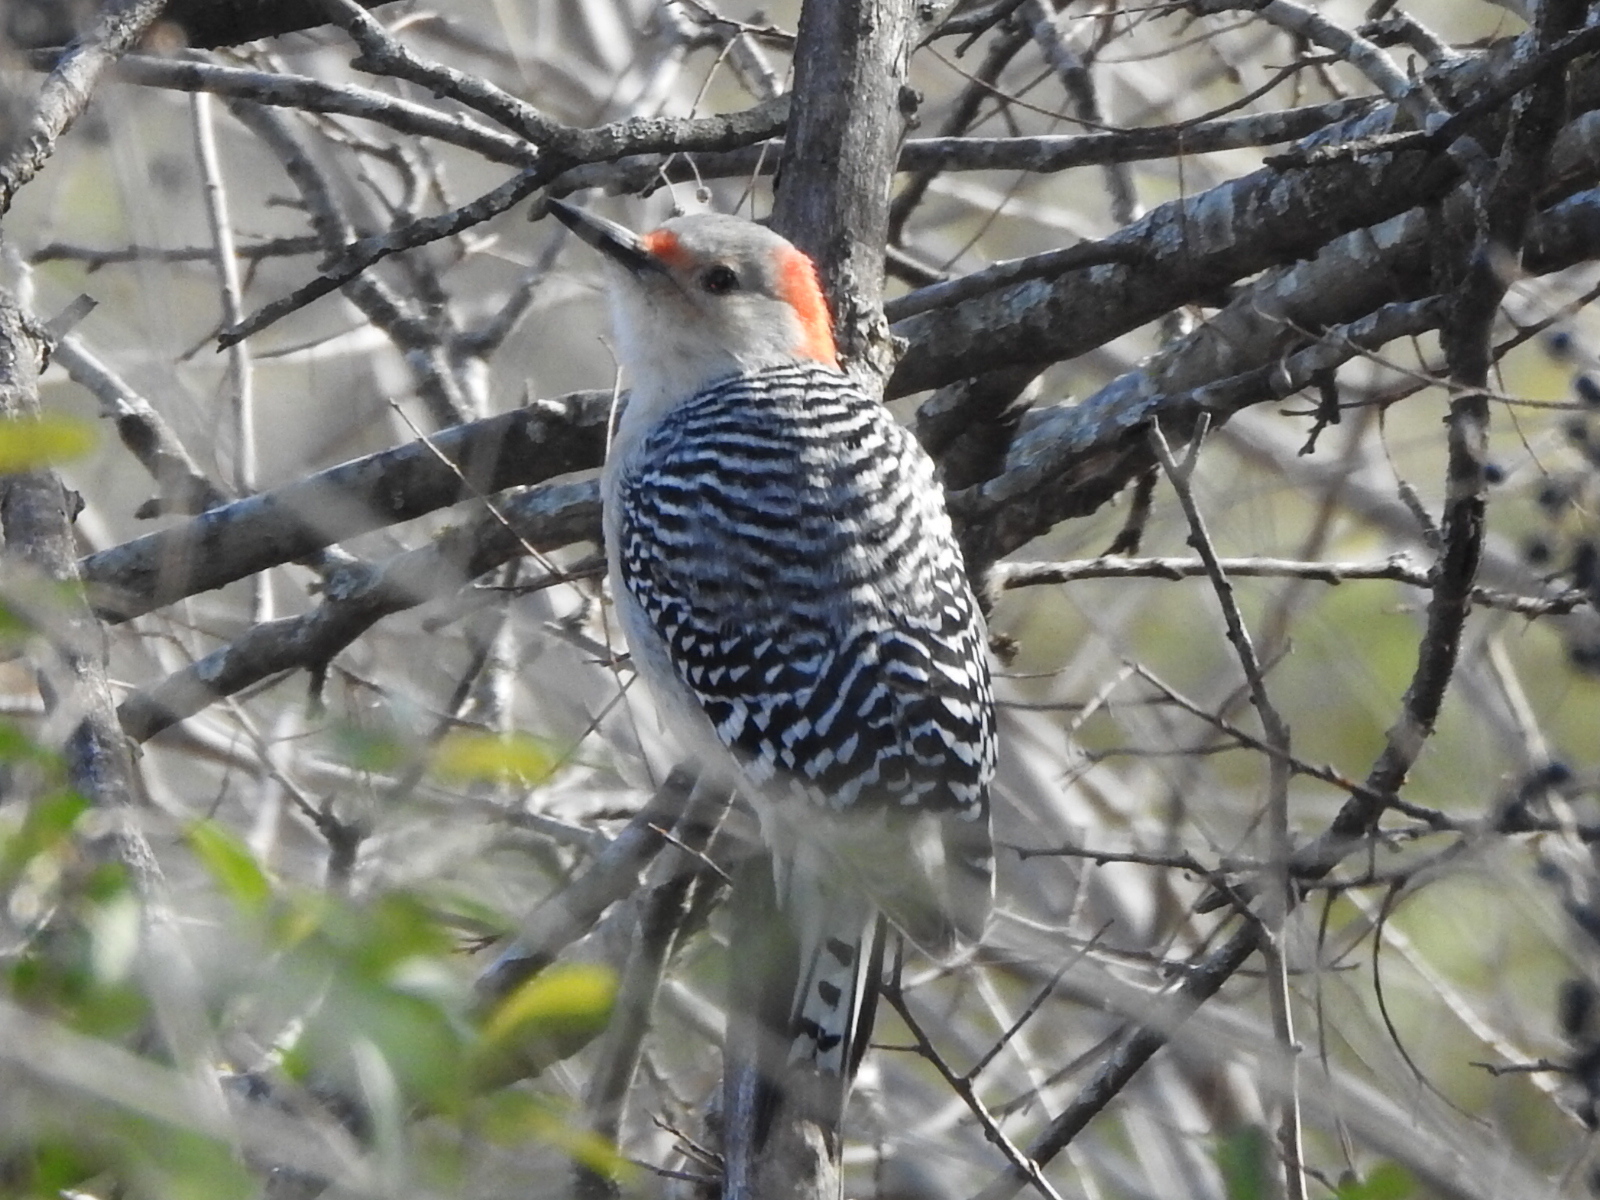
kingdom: Animalia
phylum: Chordata
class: Aves
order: Piciformes
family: Picidae
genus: Melanerpes
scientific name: Melanerpes carolinus
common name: Red-bellied woodpecker
